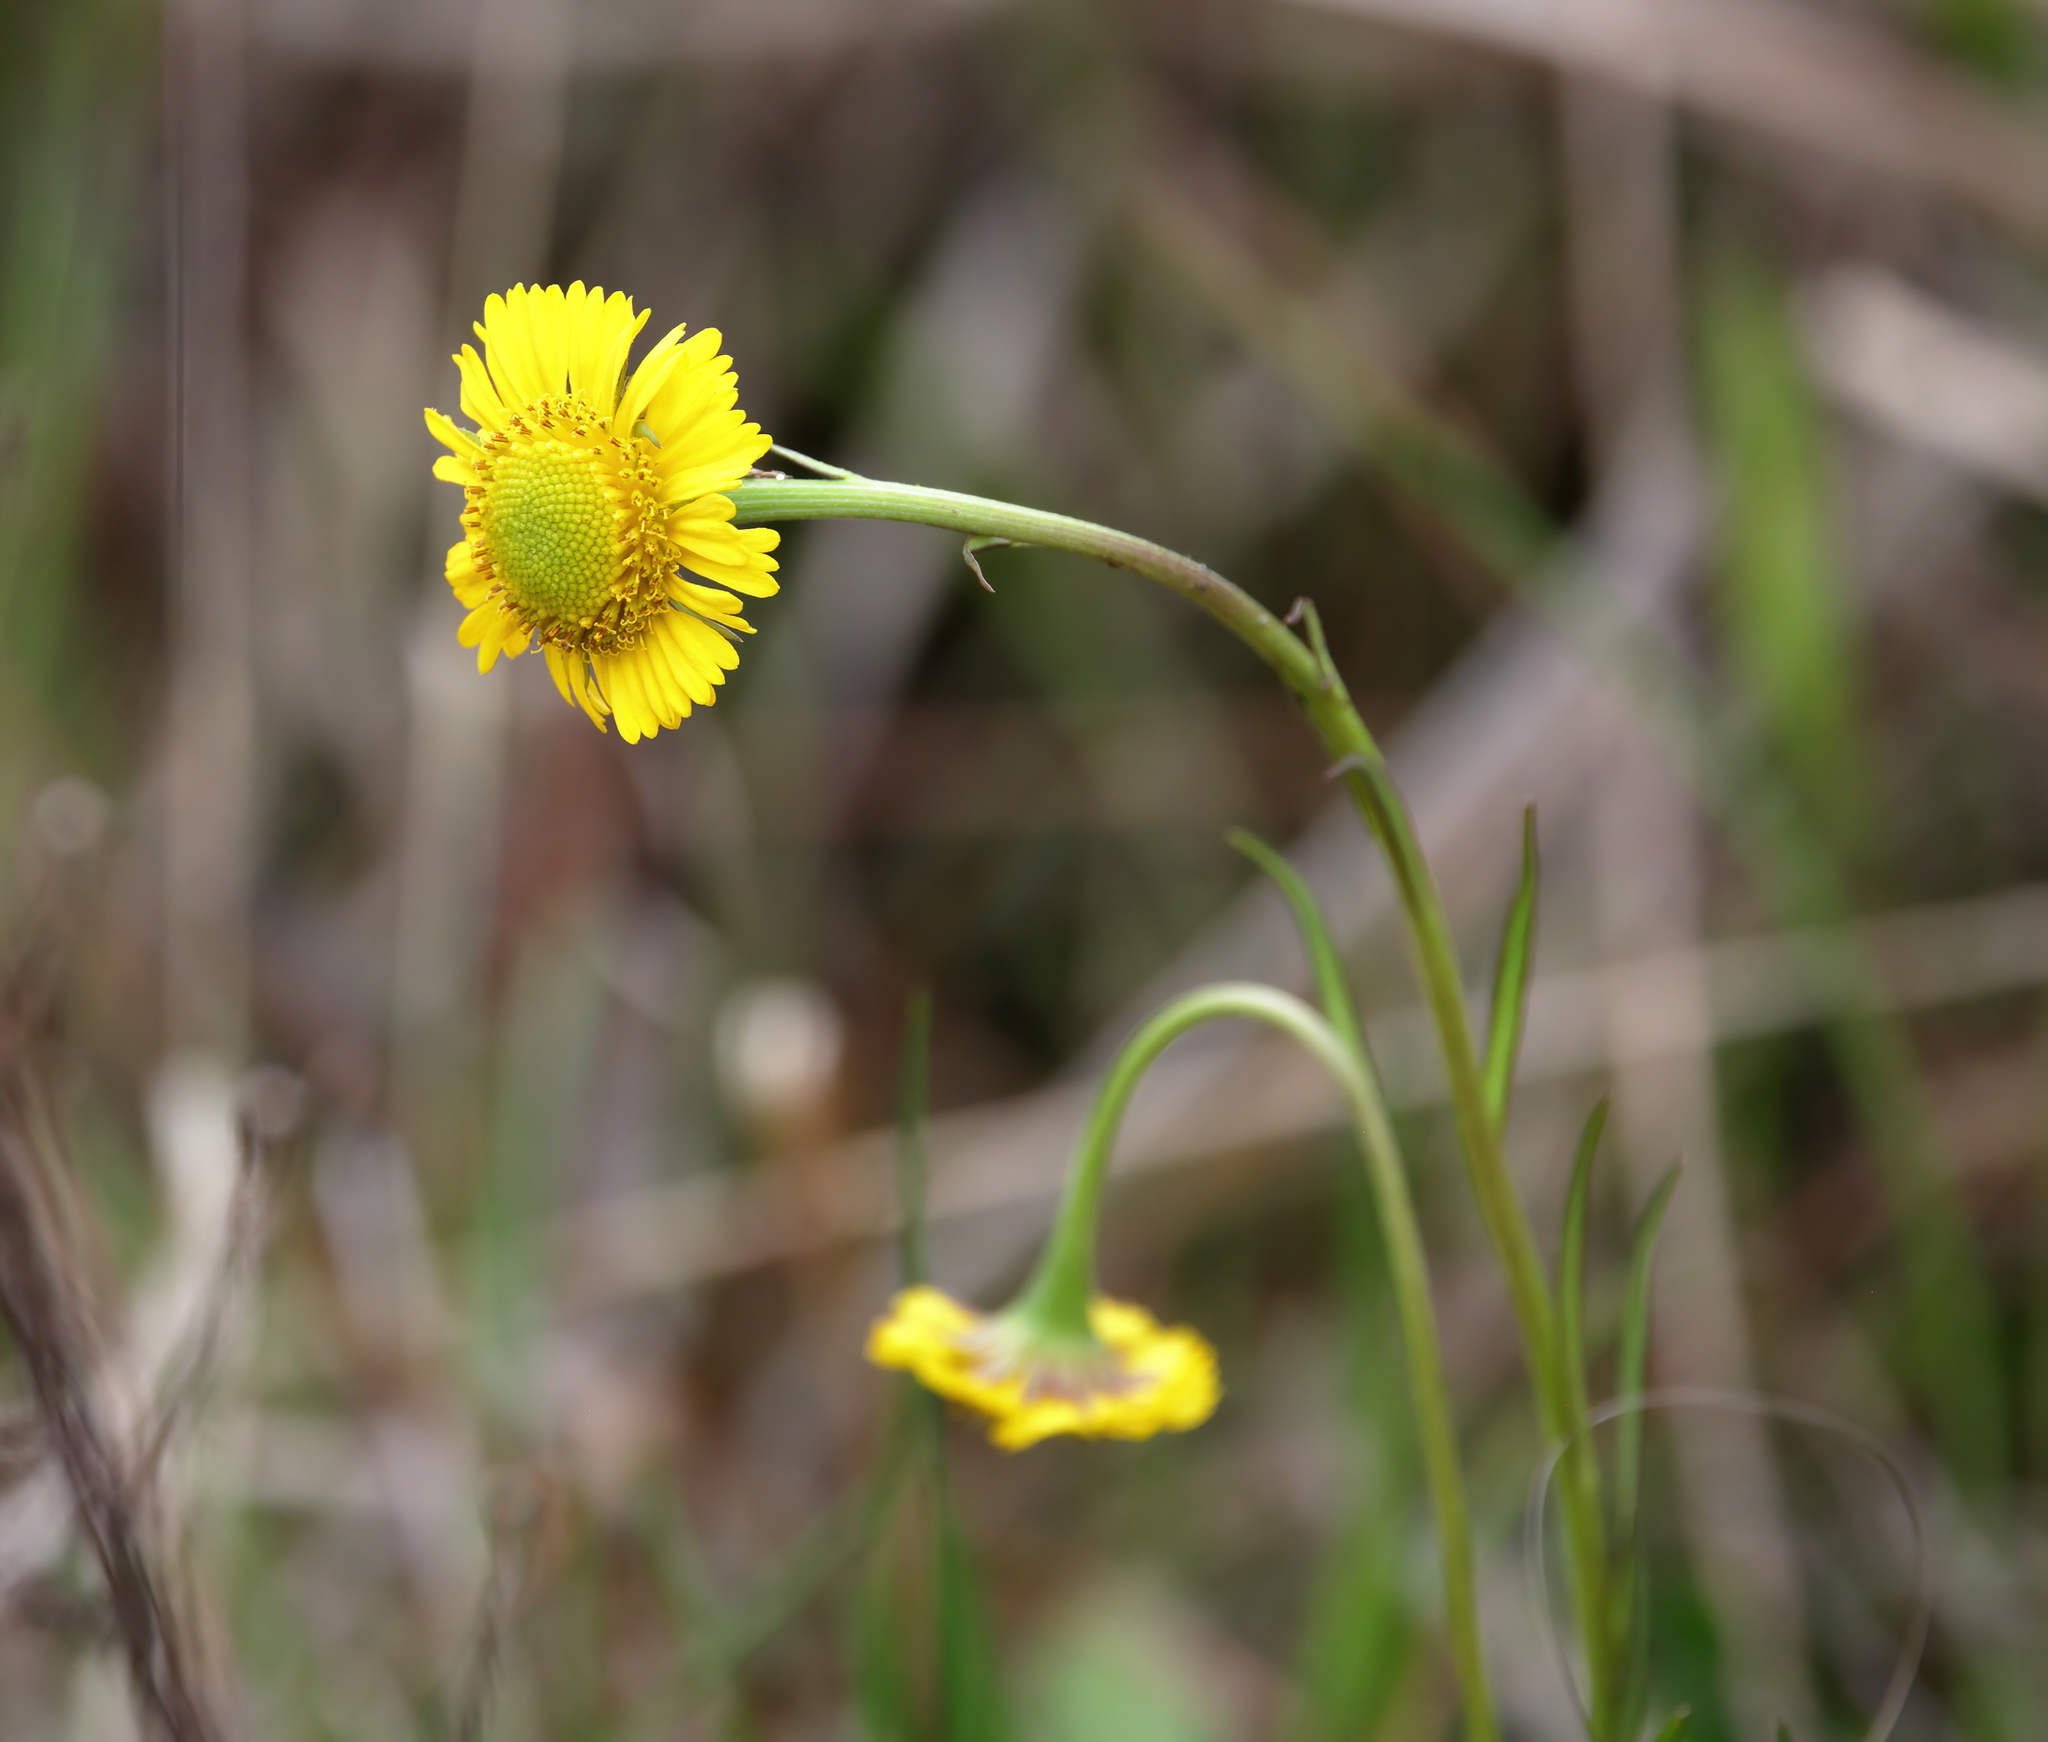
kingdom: Plantae
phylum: Tracheophyta
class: Magnoliopsida
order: Asterales
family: Asteraceae
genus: Helenium
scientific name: Helenium vernale
